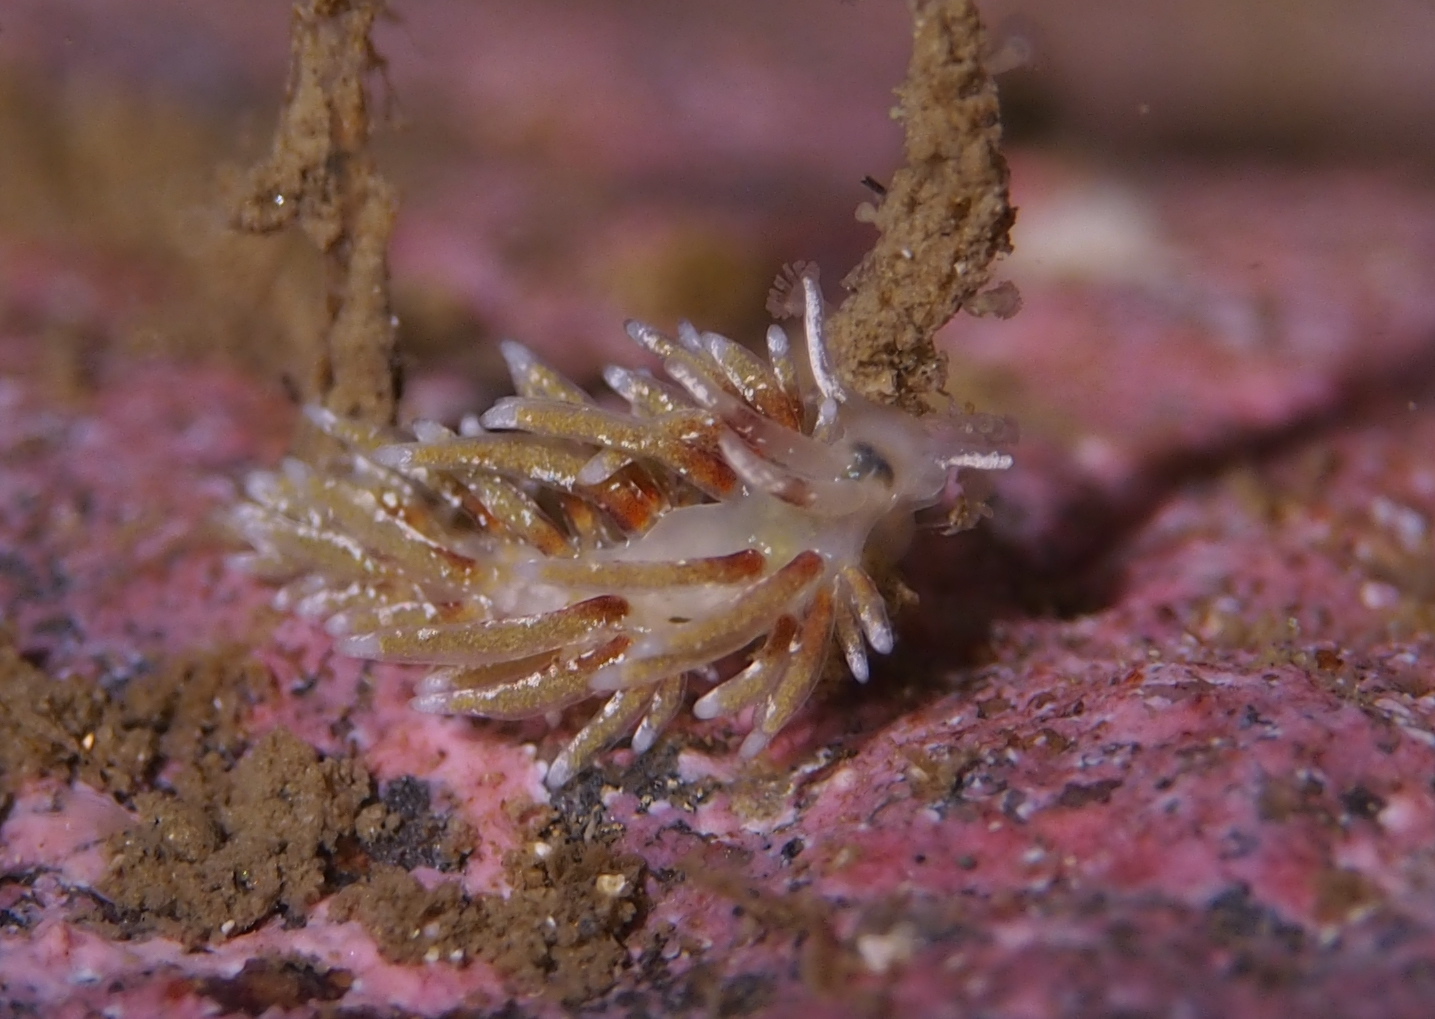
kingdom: Animalia
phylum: Mollusca
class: Gastropoda
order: Nudibranchia
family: Trinchesiidae
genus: Rubramoena
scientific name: Rubramoena rubescens
